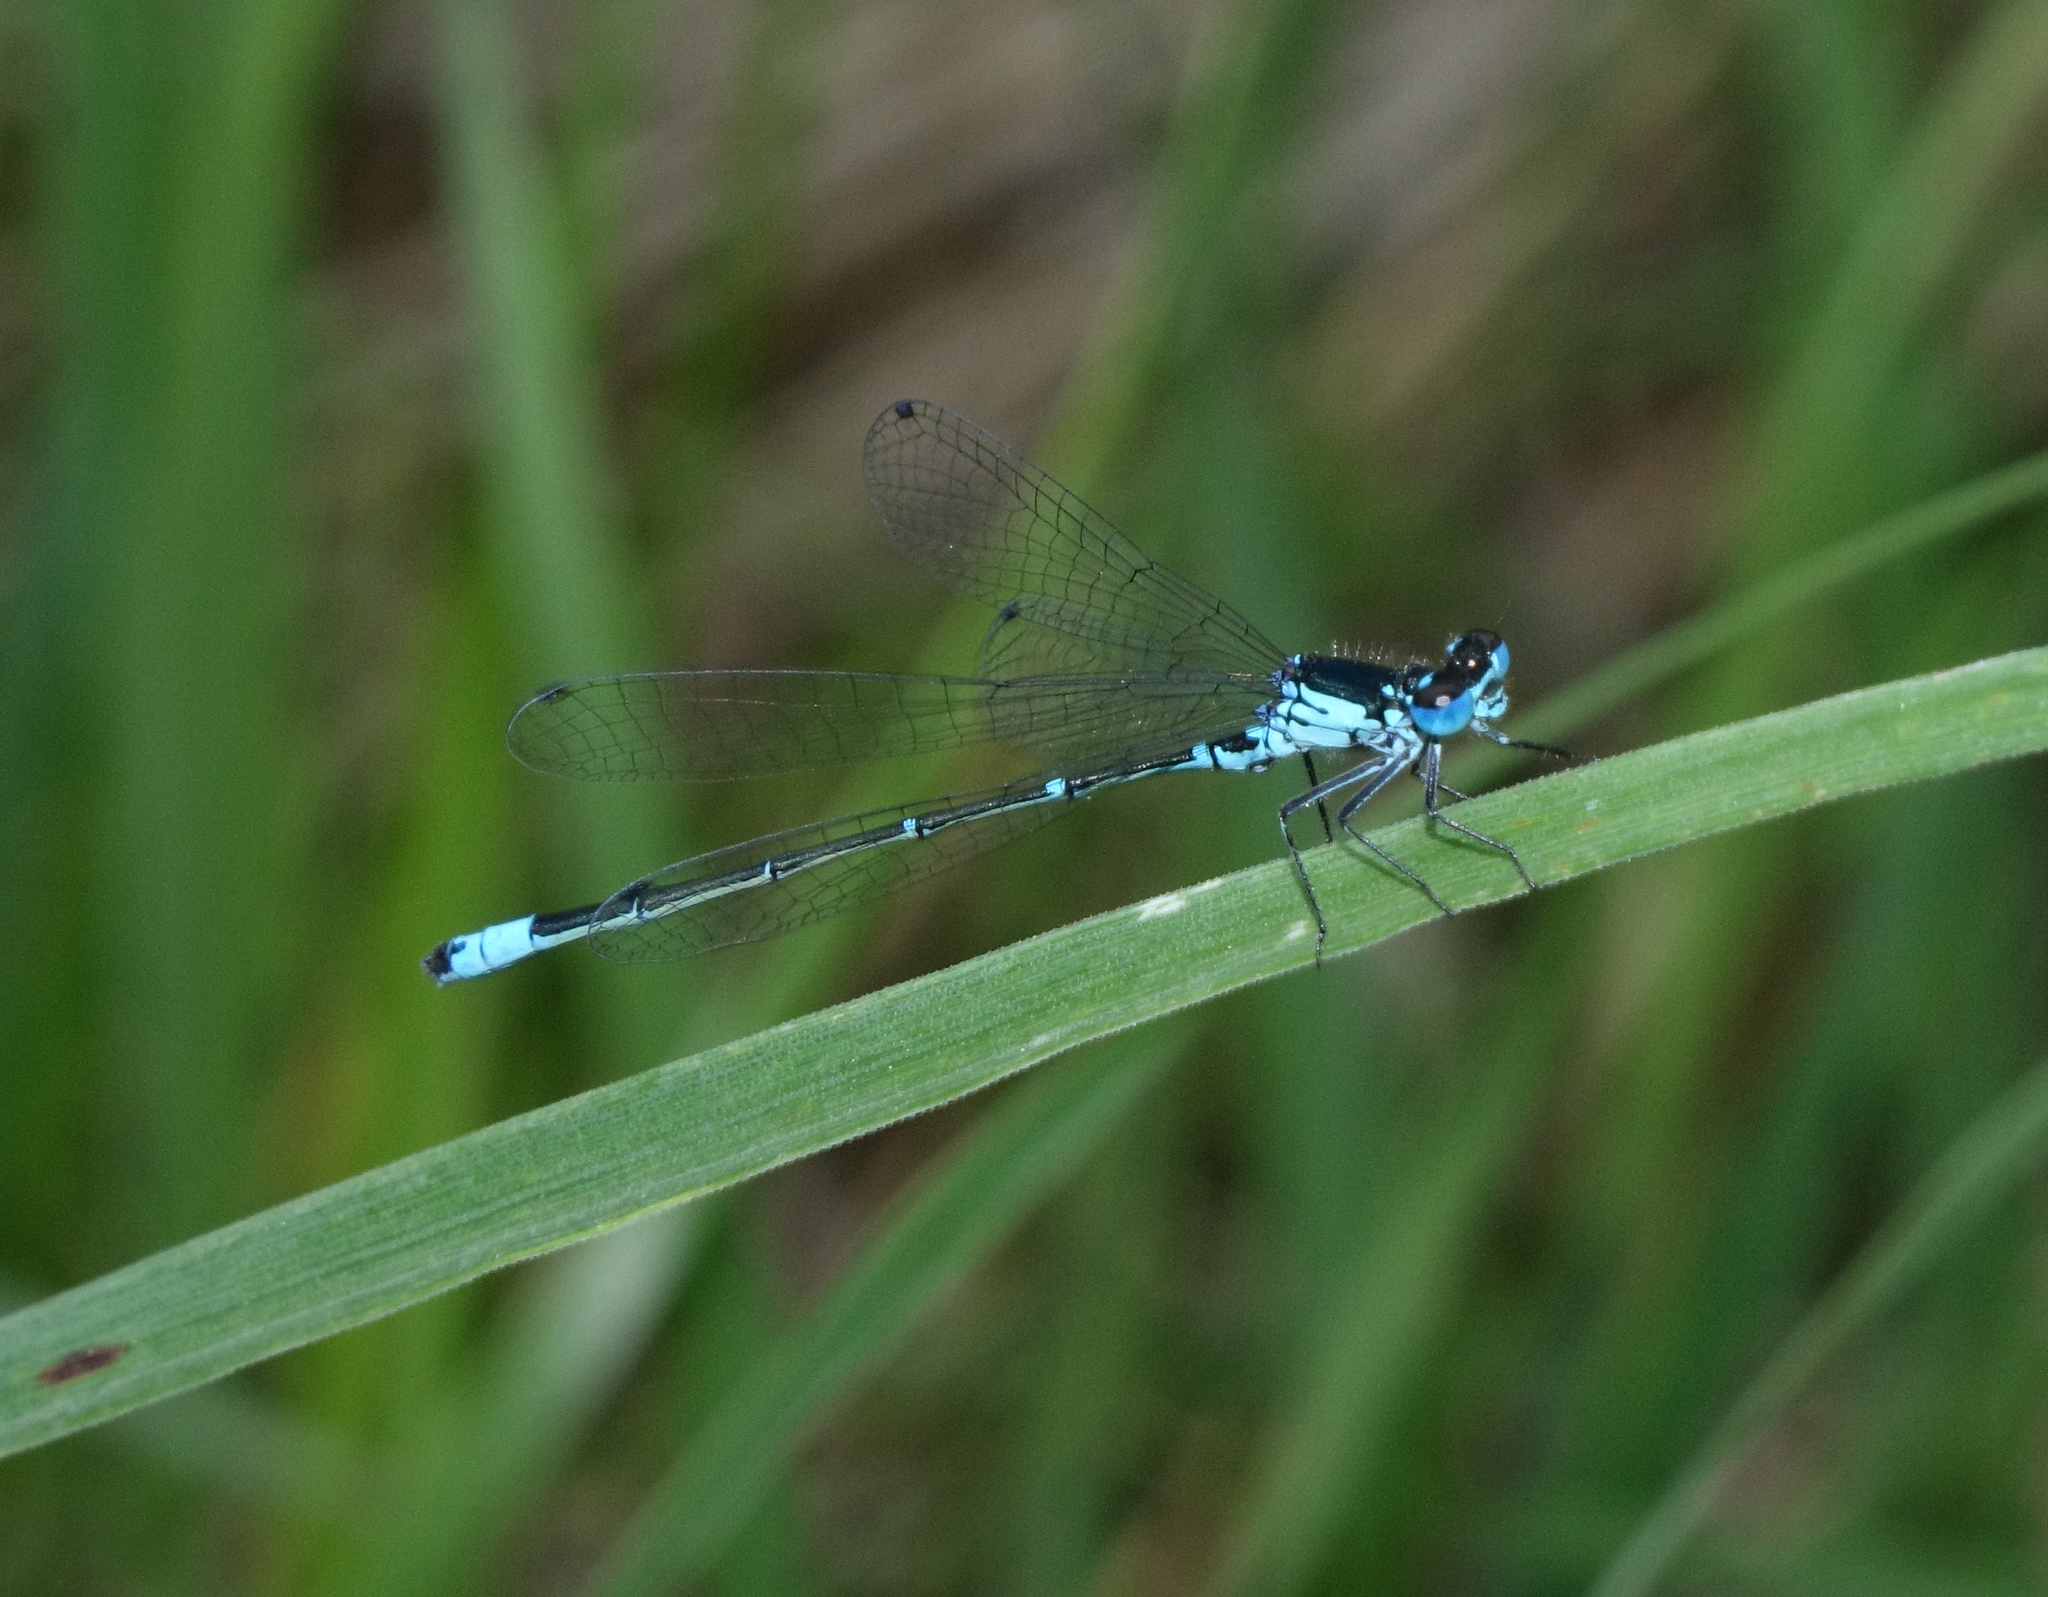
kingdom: Animalia
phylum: Arthropoda
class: Insecta
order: Odonata
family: Coenagrionidae
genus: Coenagrion
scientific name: Coenagrion pulchellum
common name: Variable bluet
